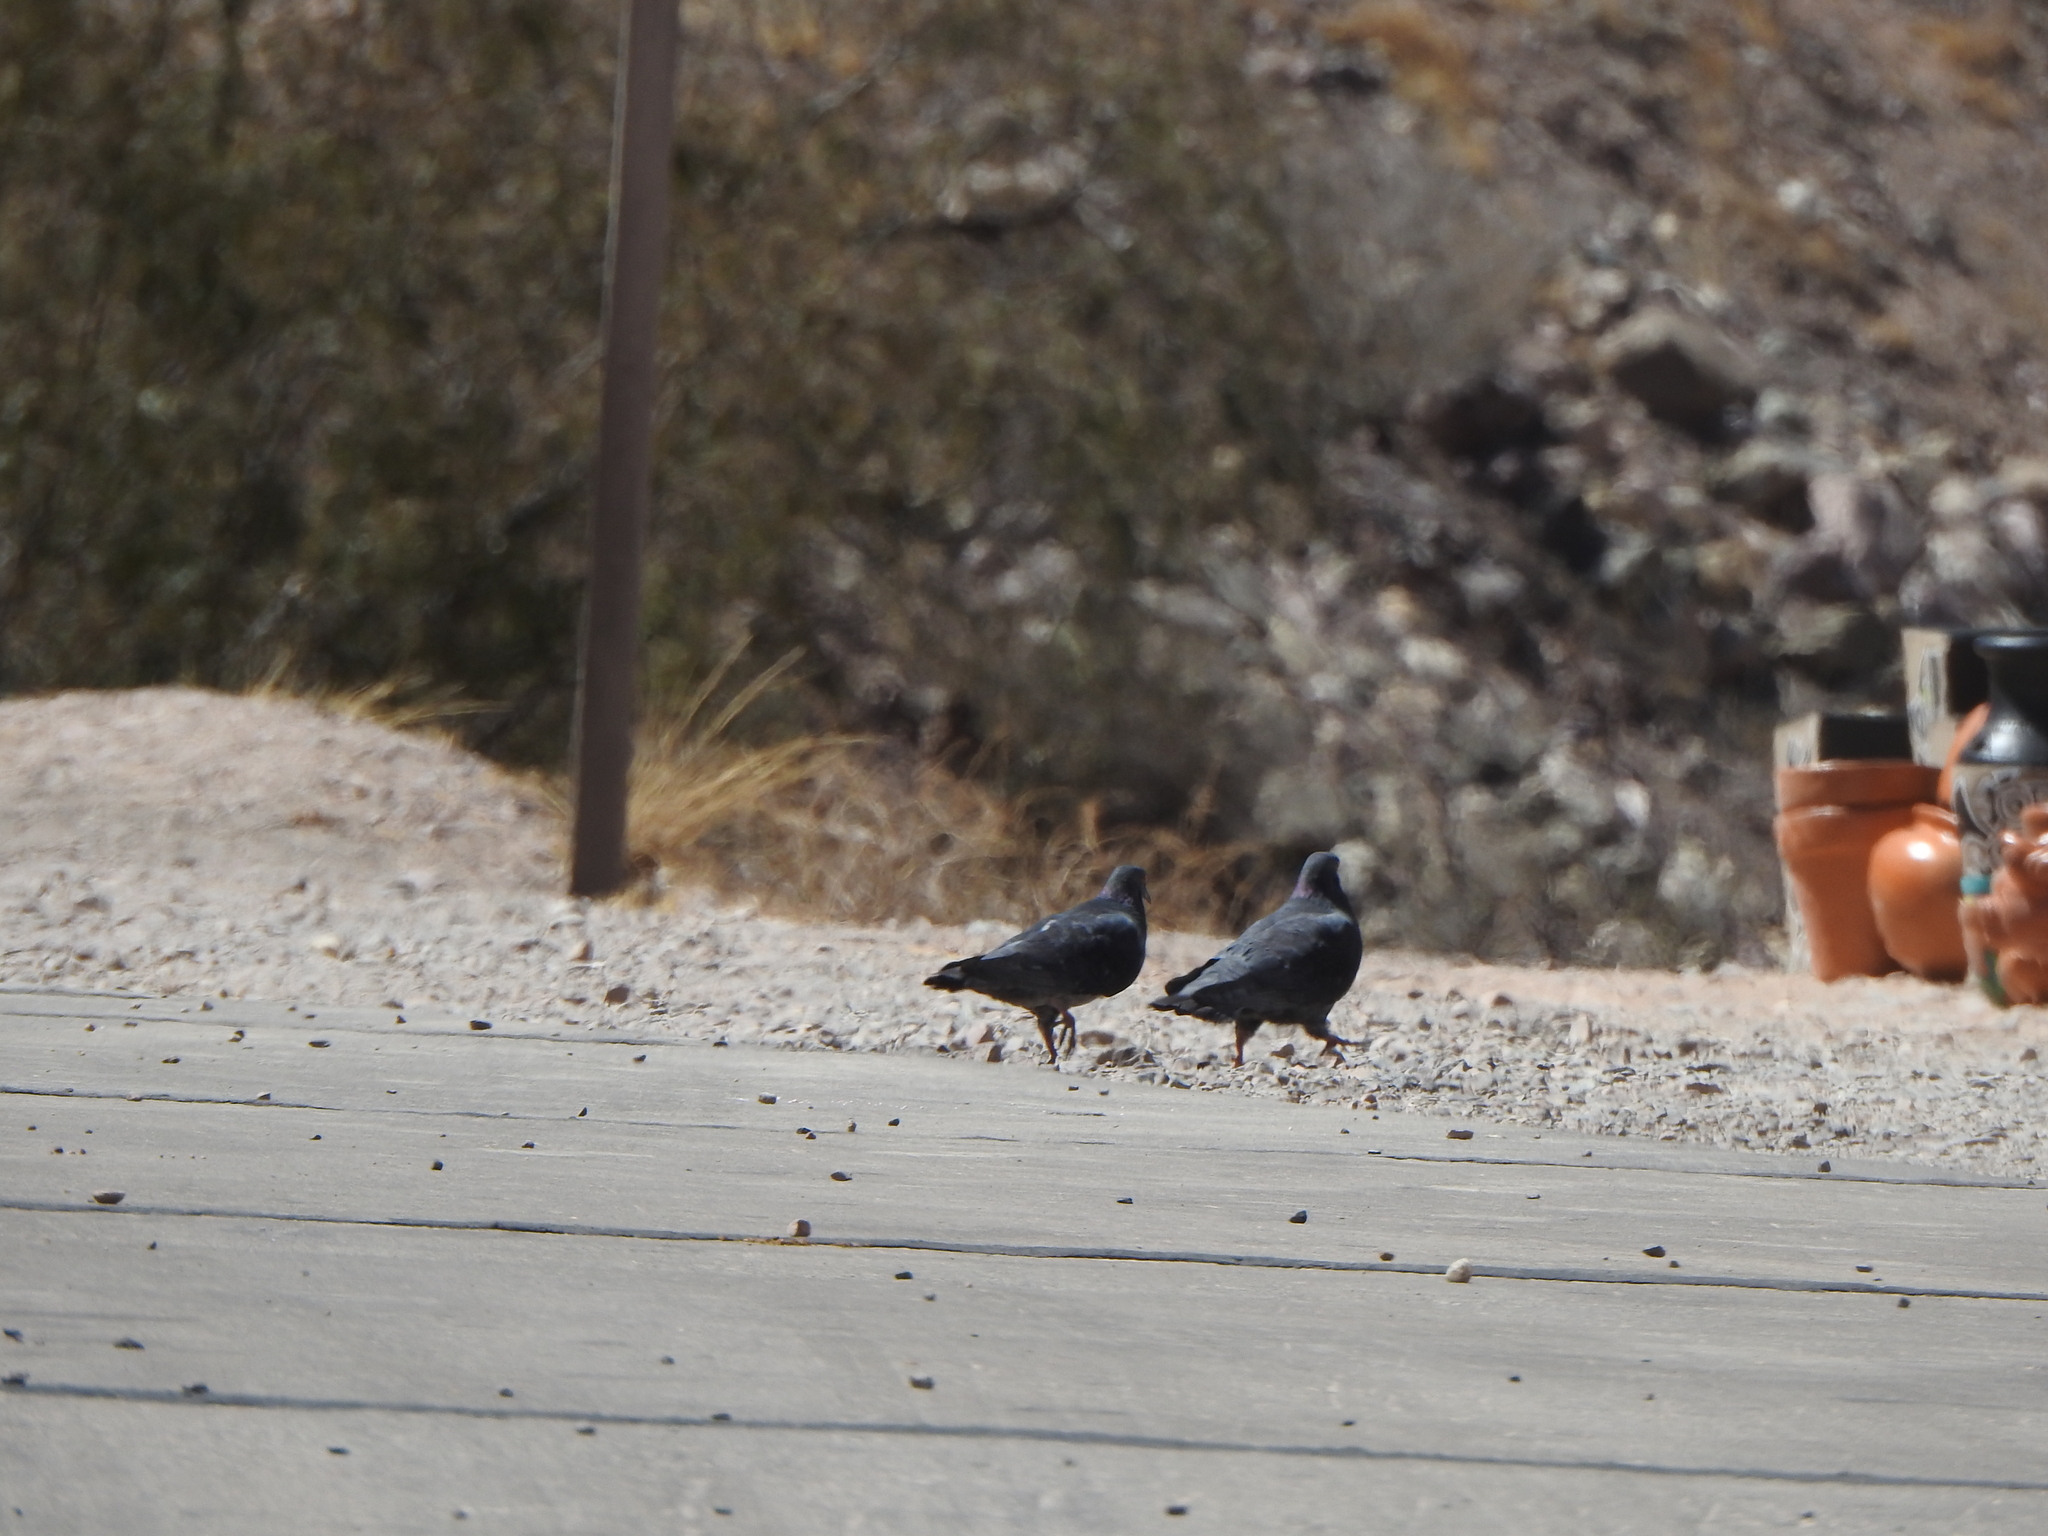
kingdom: Animalia
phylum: Chordata
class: Aves
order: Columbiformes
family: Columbidae
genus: Columba
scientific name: Columba livia
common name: Rock pigeon
